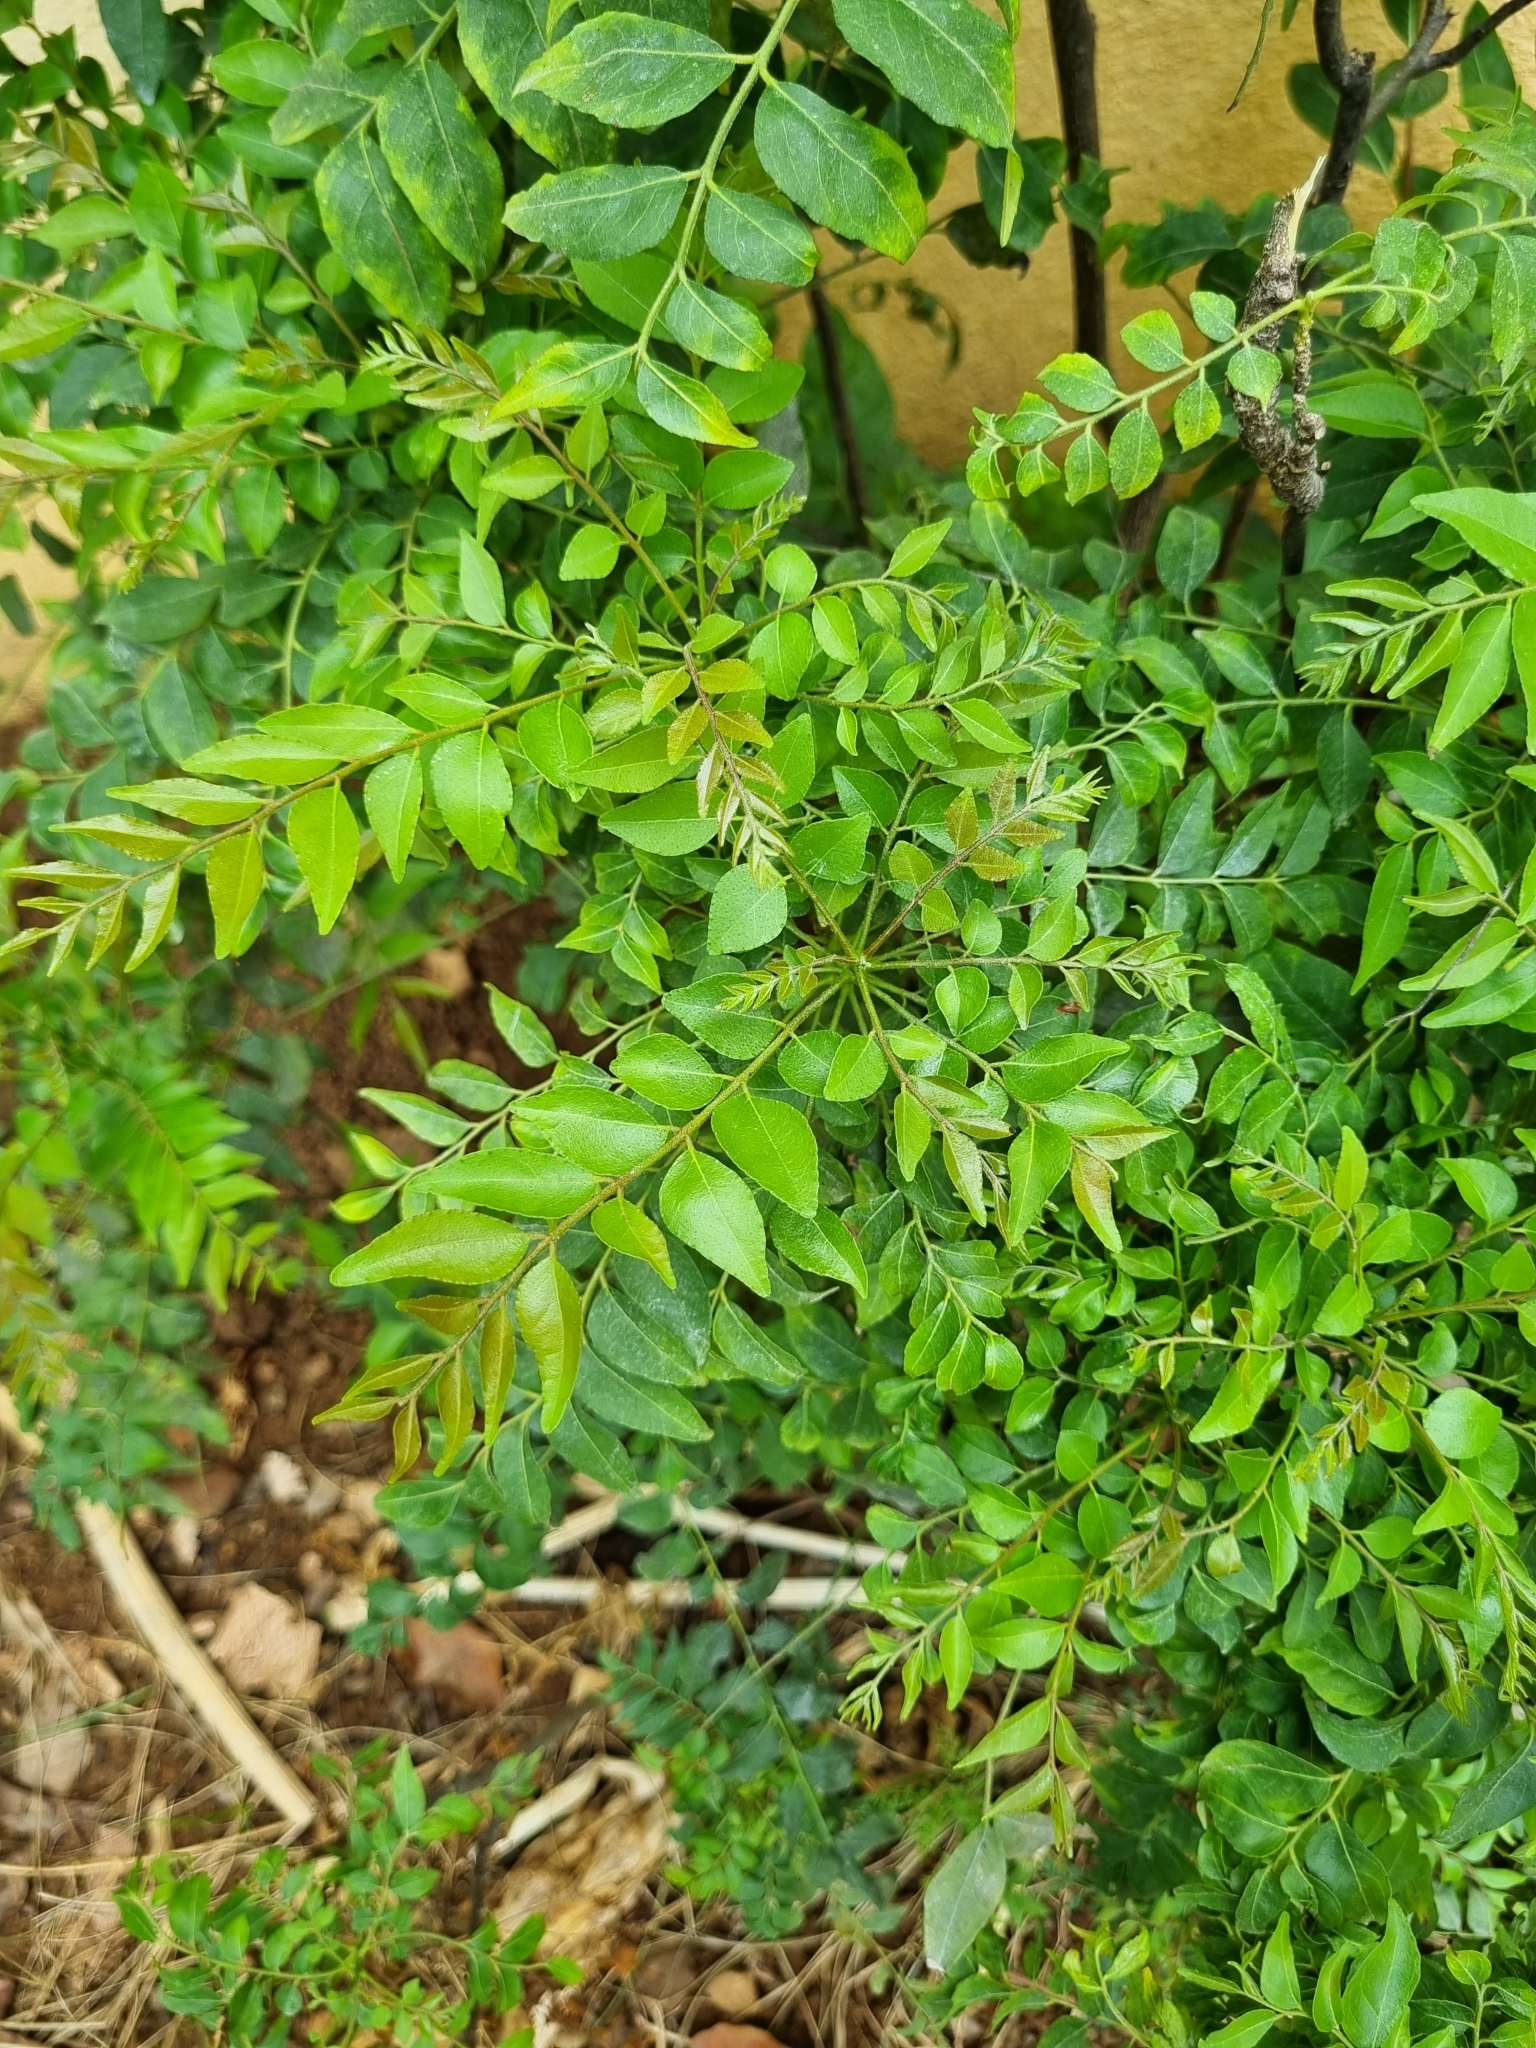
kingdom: Plantae
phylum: Tracheophyta
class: Magnoliopsida
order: Sapindales
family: Rutaceae
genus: Murraya
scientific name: Murraya koenigii
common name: Curry-plant
